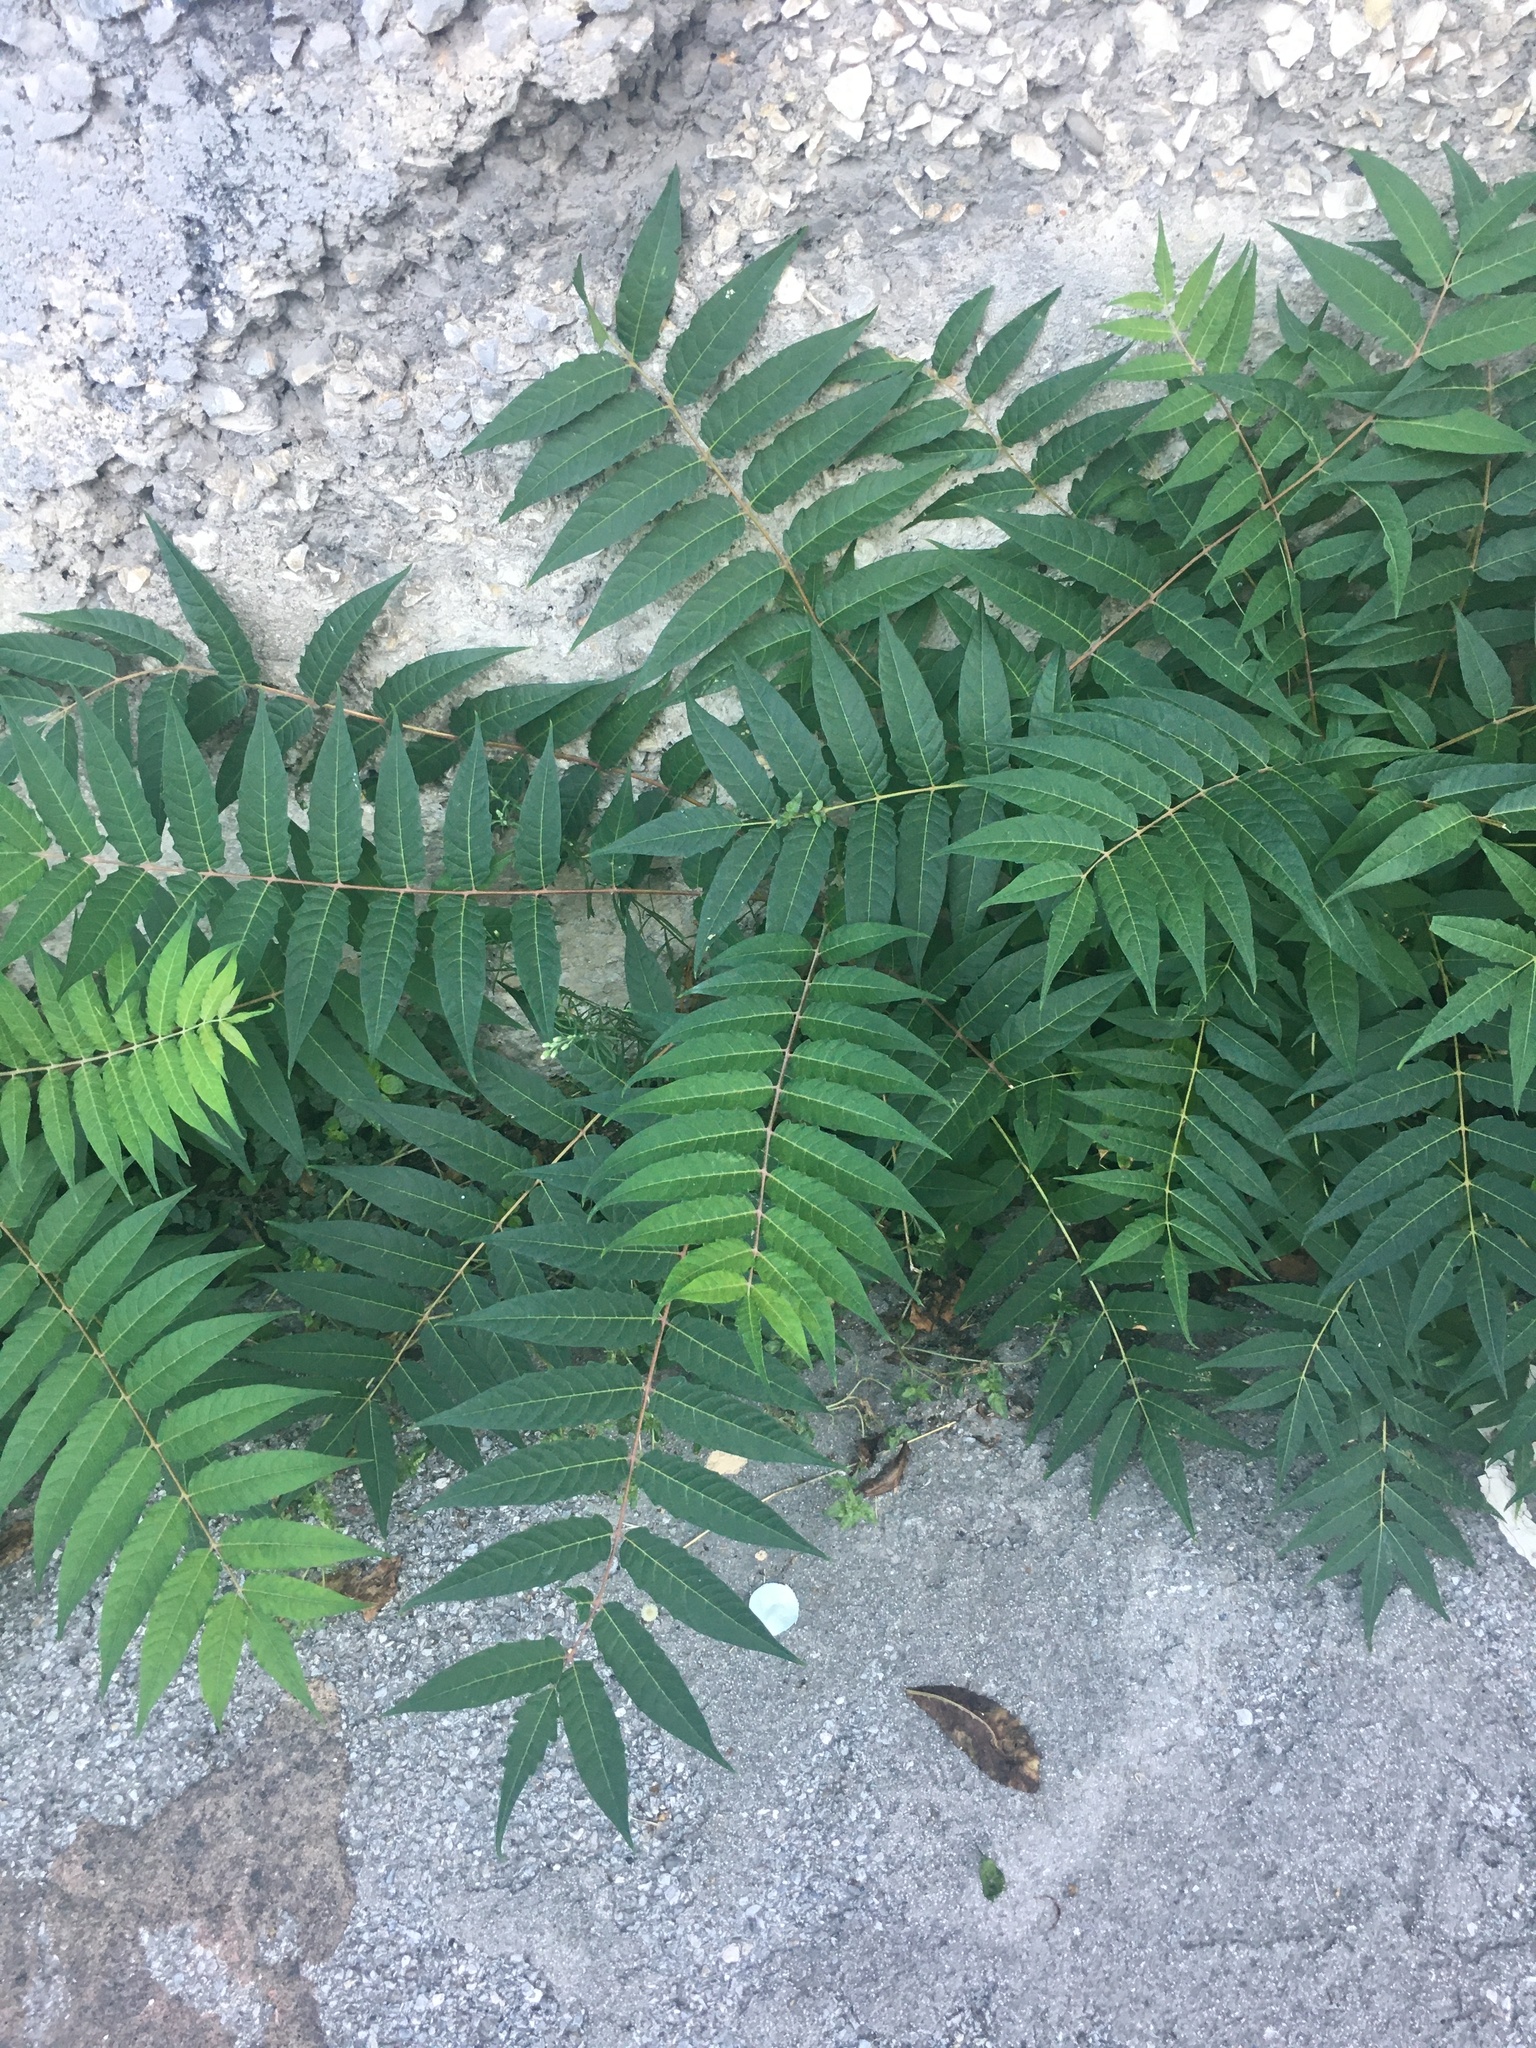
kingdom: Plantae
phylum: Tracheophyta
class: Magnoliopsida
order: Sapindales
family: Simaroubaceae
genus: Ailanthus
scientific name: Ailanthus altissima
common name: Tree-of-heaven
